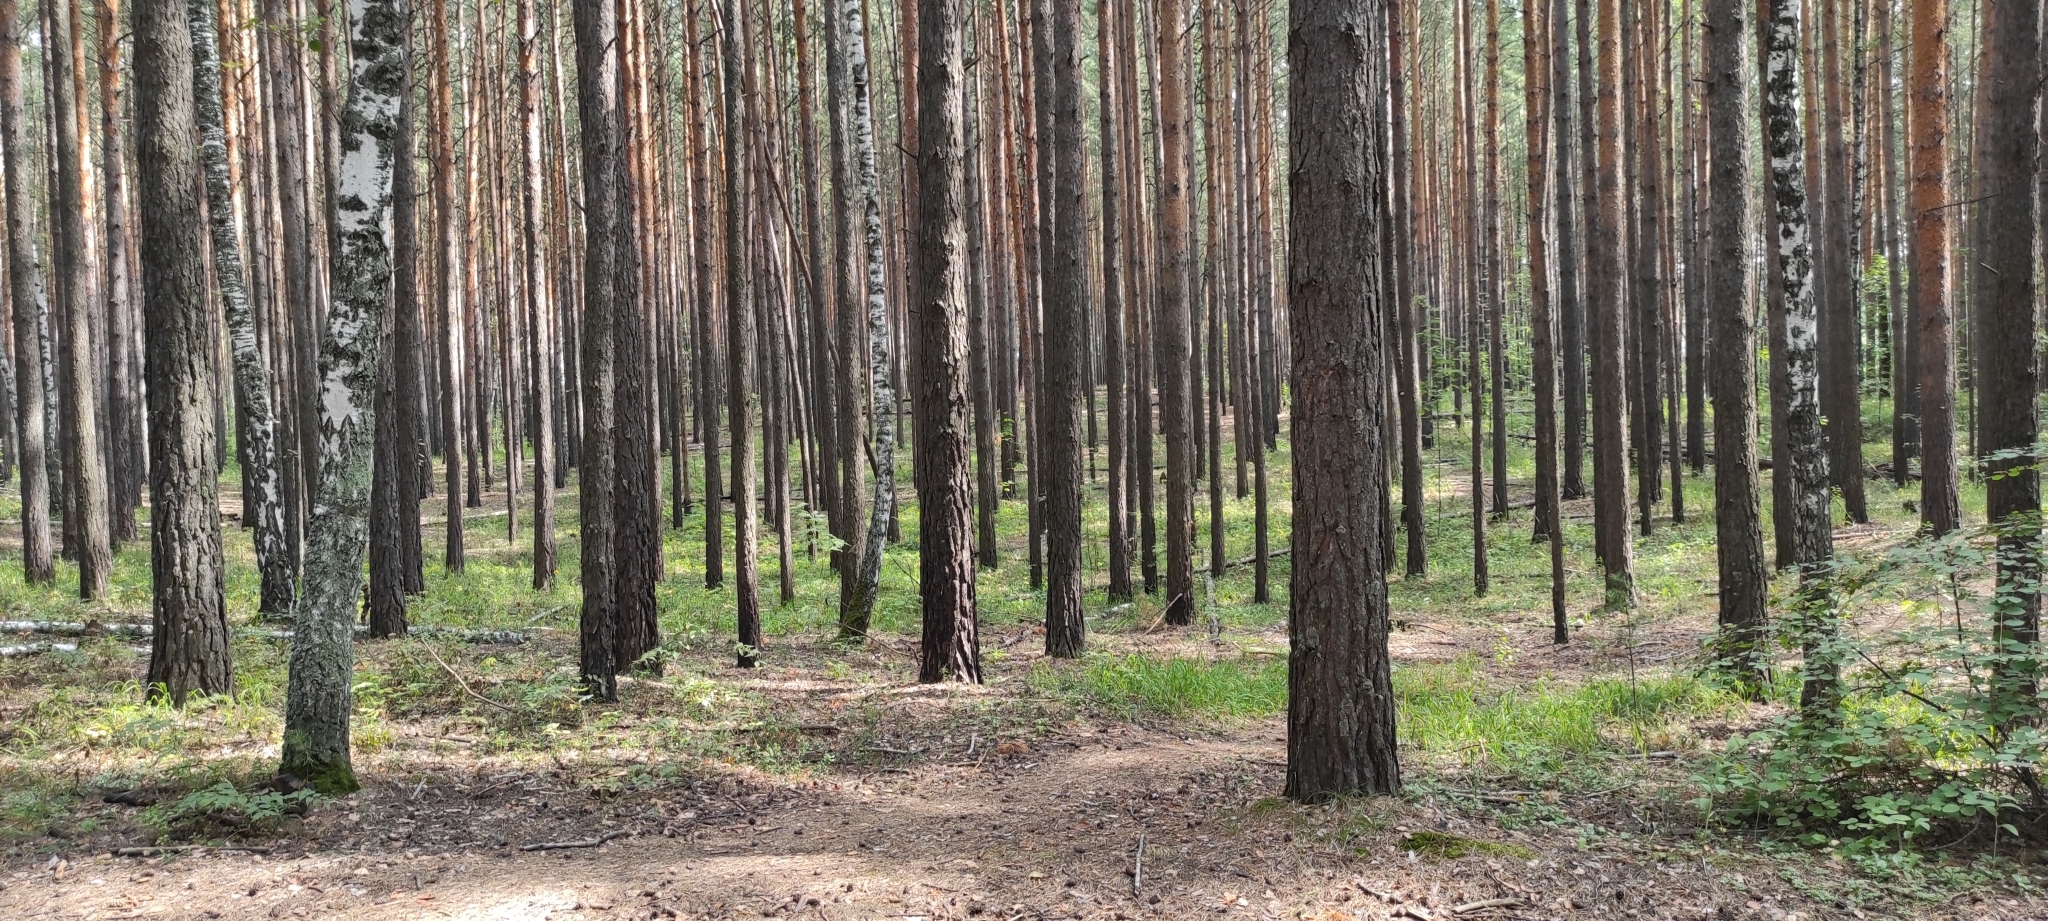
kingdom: Plantae
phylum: Tracheophyta
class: Pinopsida
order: Pinales
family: Pinaceae
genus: Pinus
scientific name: Pinus sylvestris
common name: Scots pine
